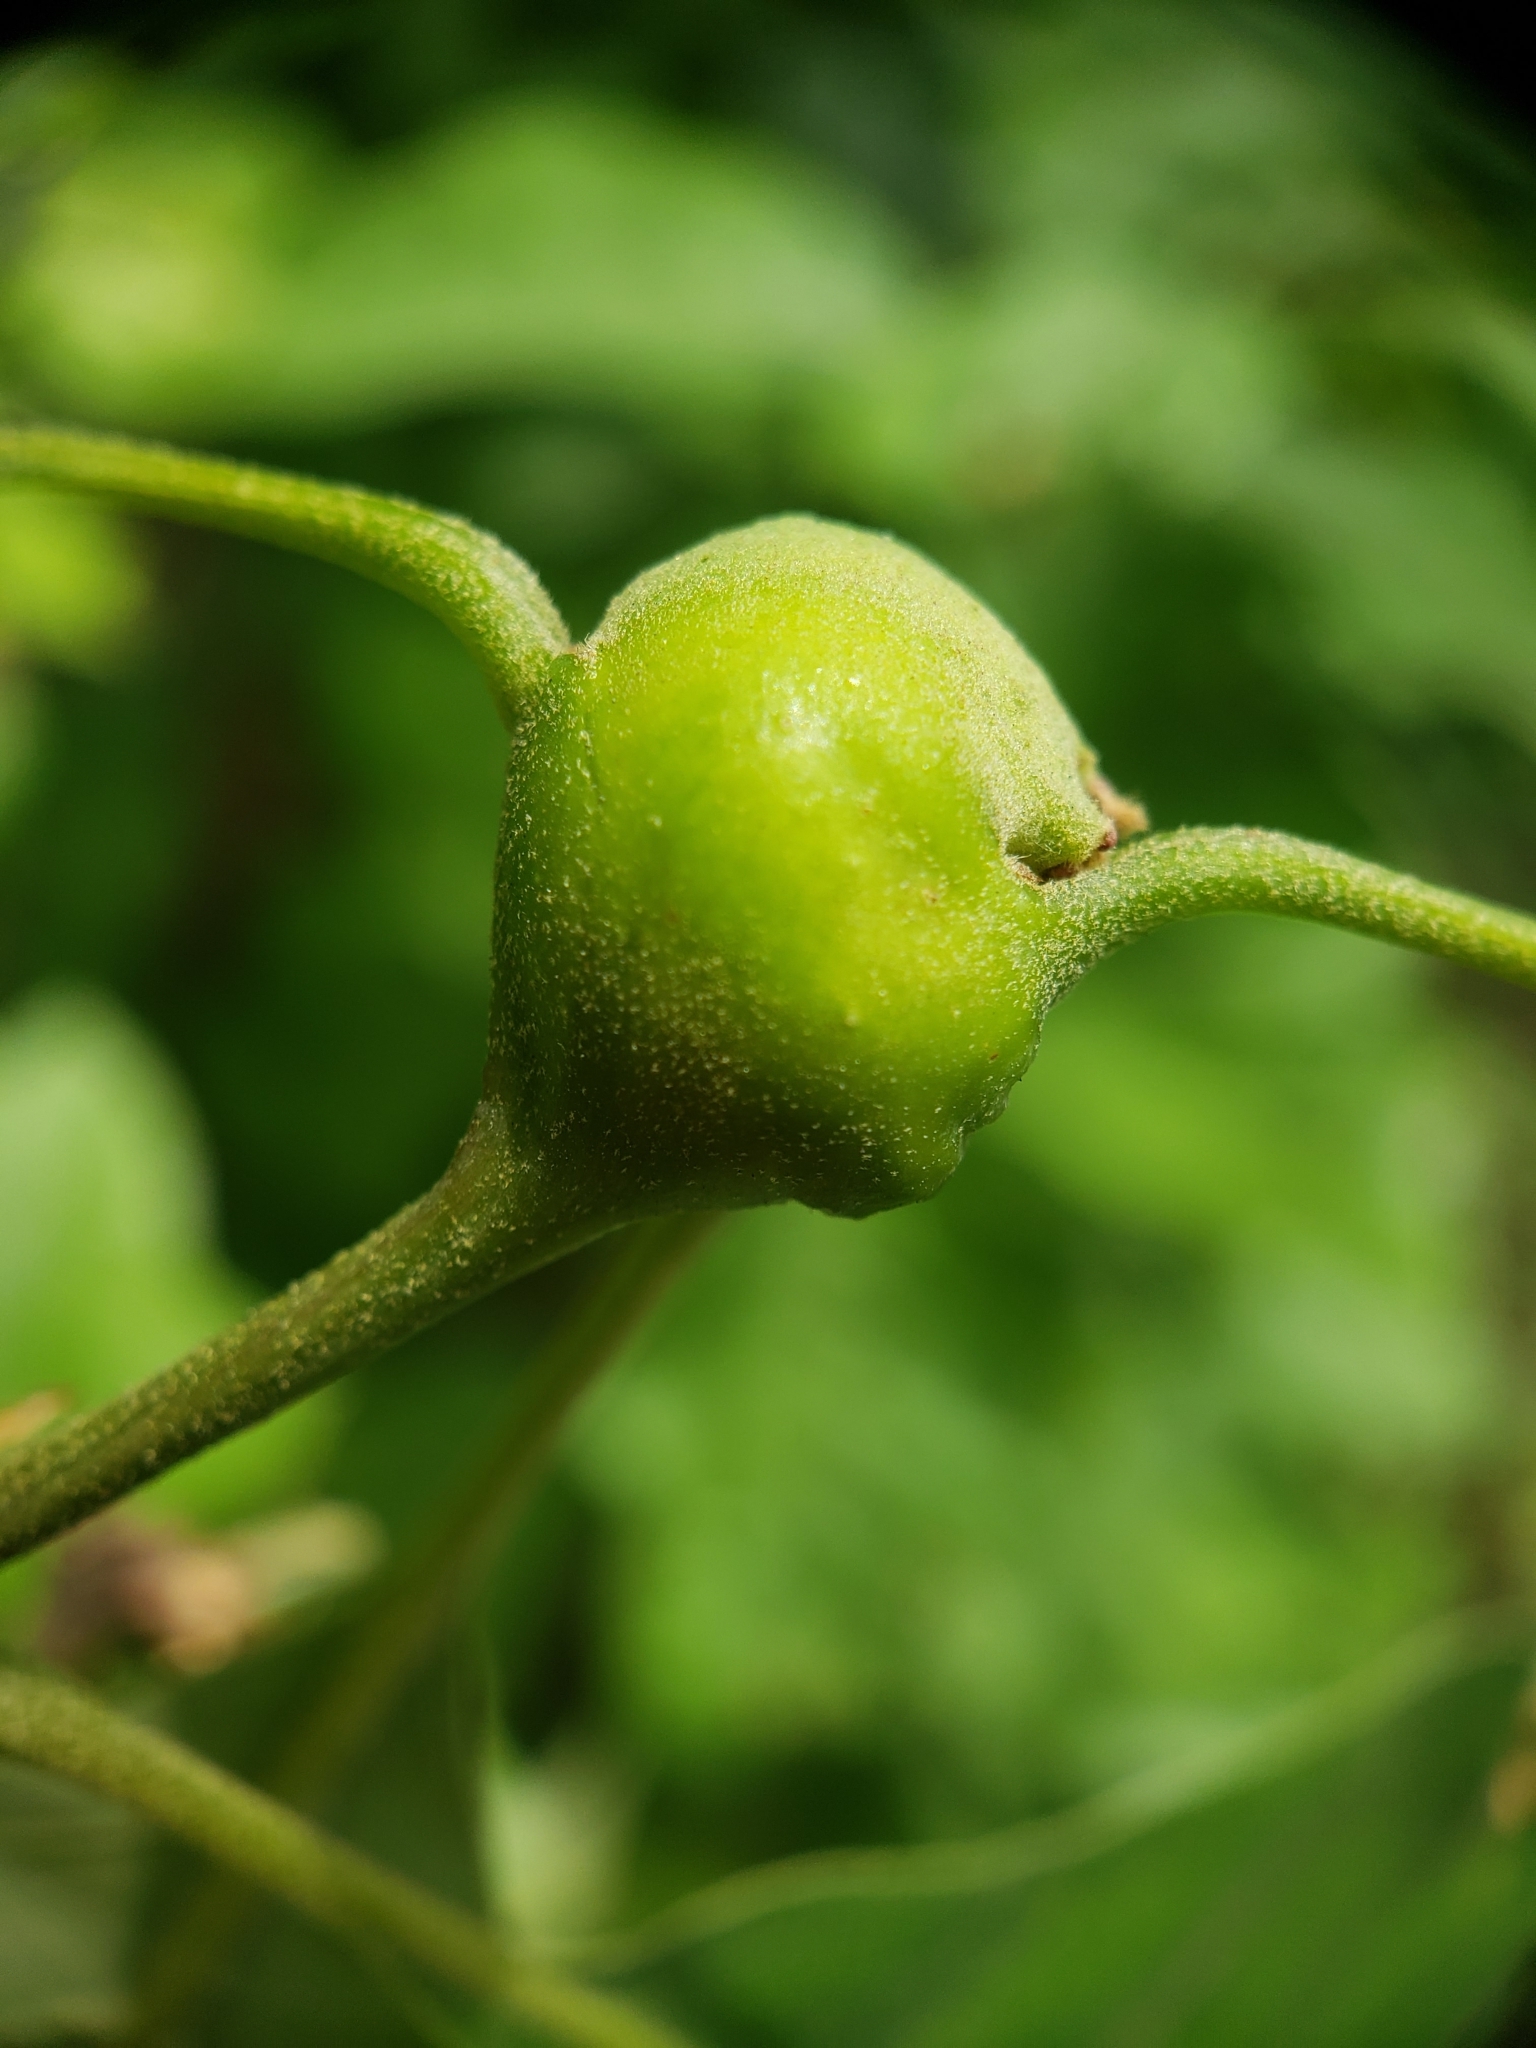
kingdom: Animalia
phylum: Arthropoda
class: Insecta
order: Hymenoptera
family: Cynipidae
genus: Zapatella
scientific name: Zapatella quercusphellos
